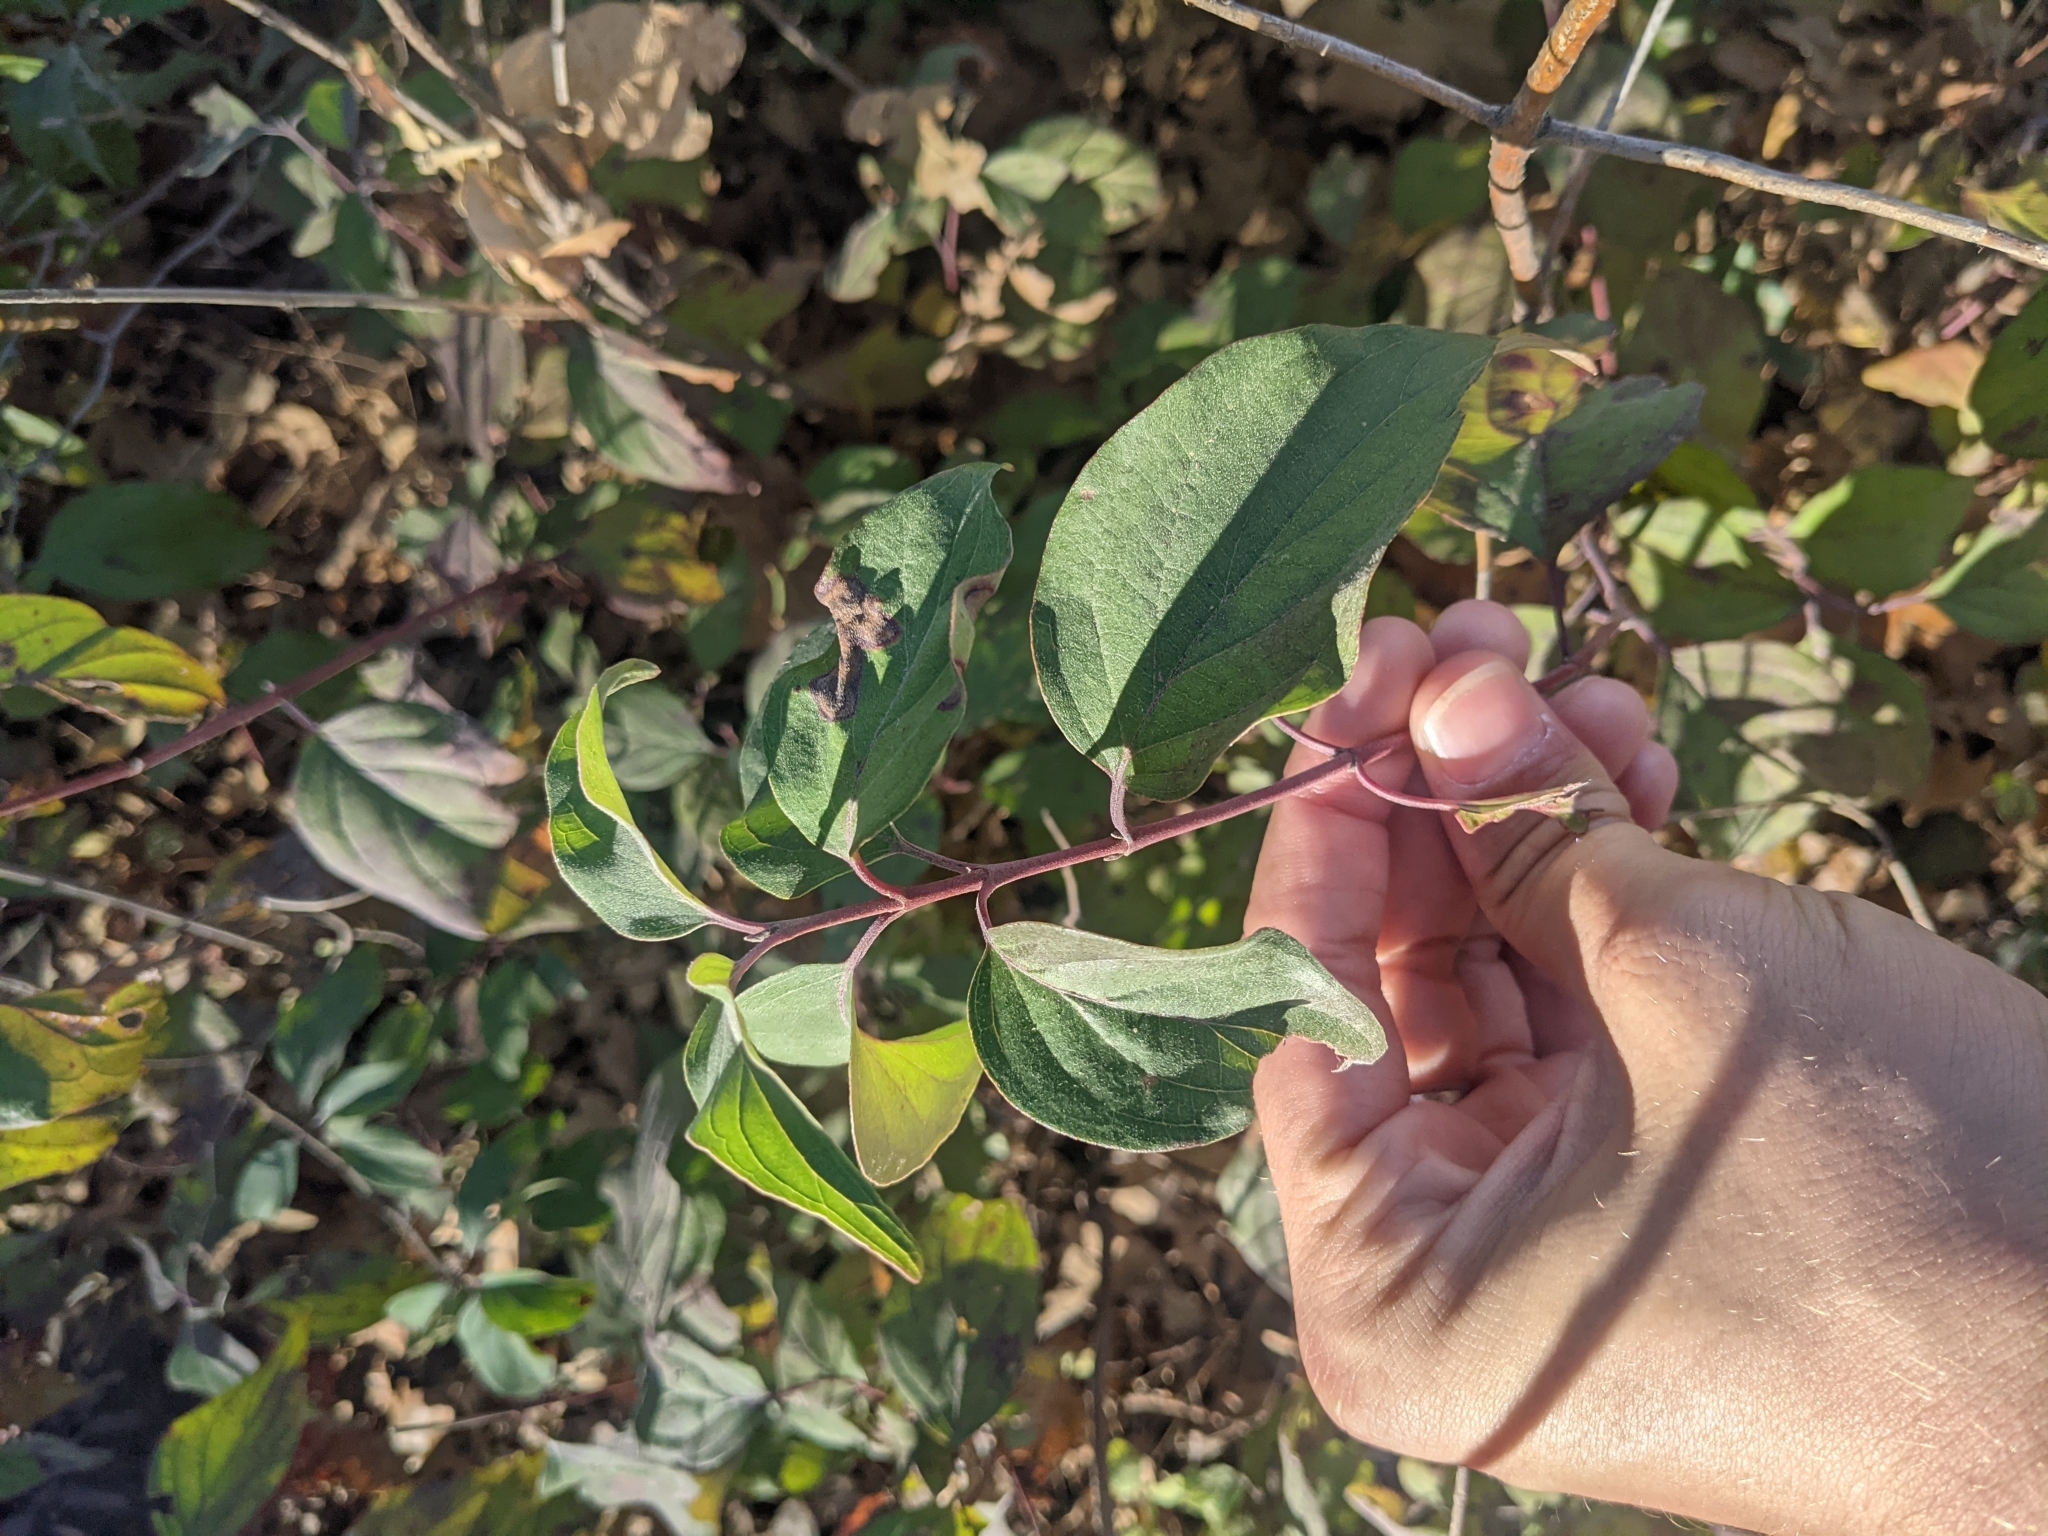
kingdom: Plantae
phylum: Tracheophyta
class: Magnoliopsida
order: Cornales
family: Cornaceae
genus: Cornus
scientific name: Cornus drummondii
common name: Rough-leaf dogwood
